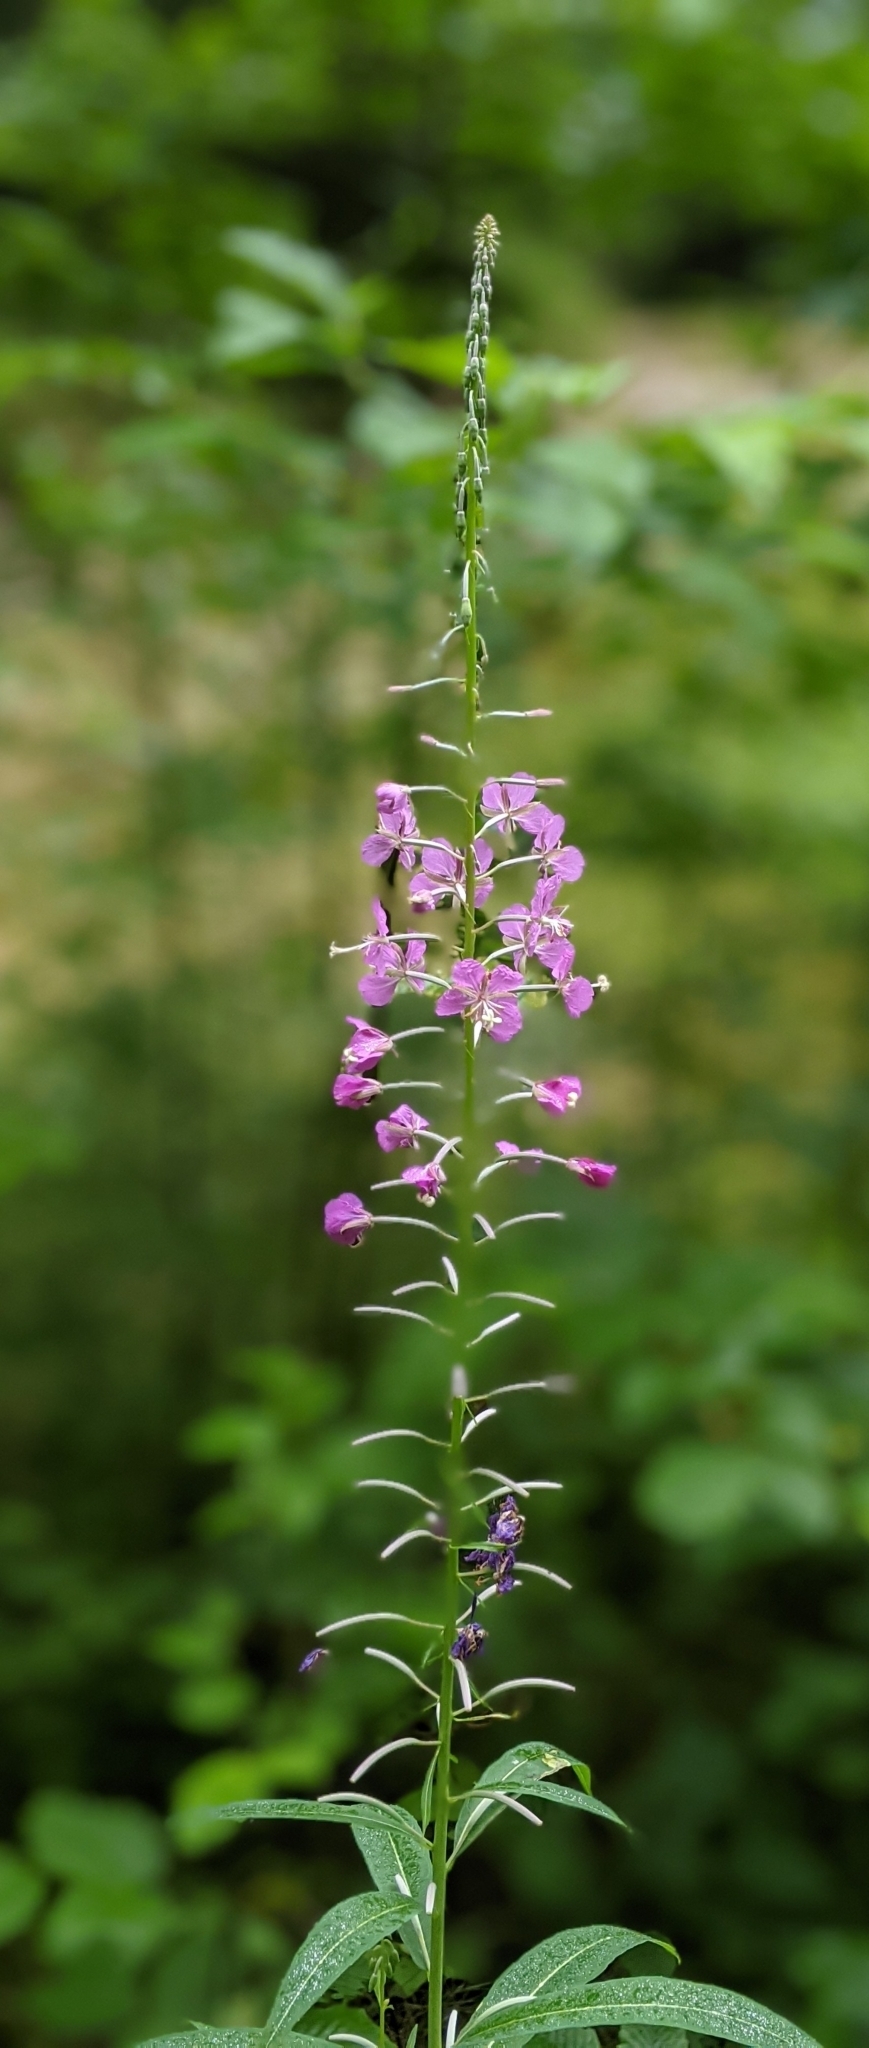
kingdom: Plantae
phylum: Tracheophyta
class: Magnoliopsida
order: Myrtales
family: Onagraceae
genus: Chamaenerion
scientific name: Chamaenerion angustifolium
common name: Fireweed
